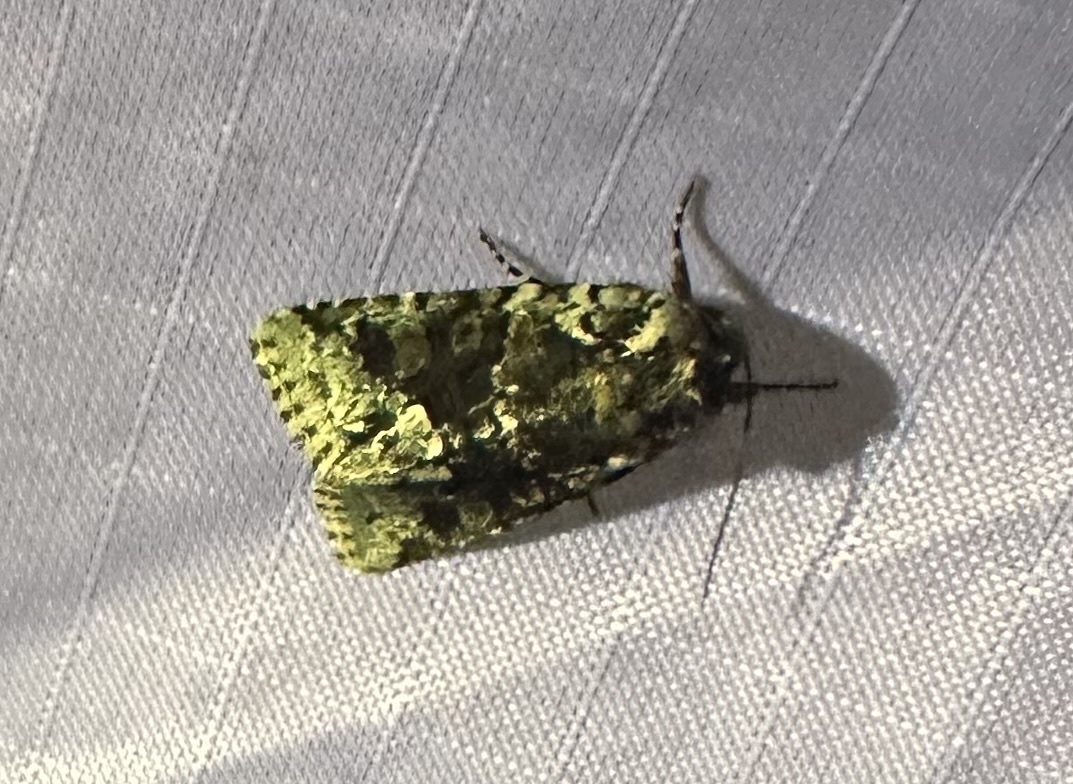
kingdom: Animalia
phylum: Arthropoda
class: Insecta
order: Lepidoptera
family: Noctuidae
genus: Lacinipolia
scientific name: Lacinipolia explicata
